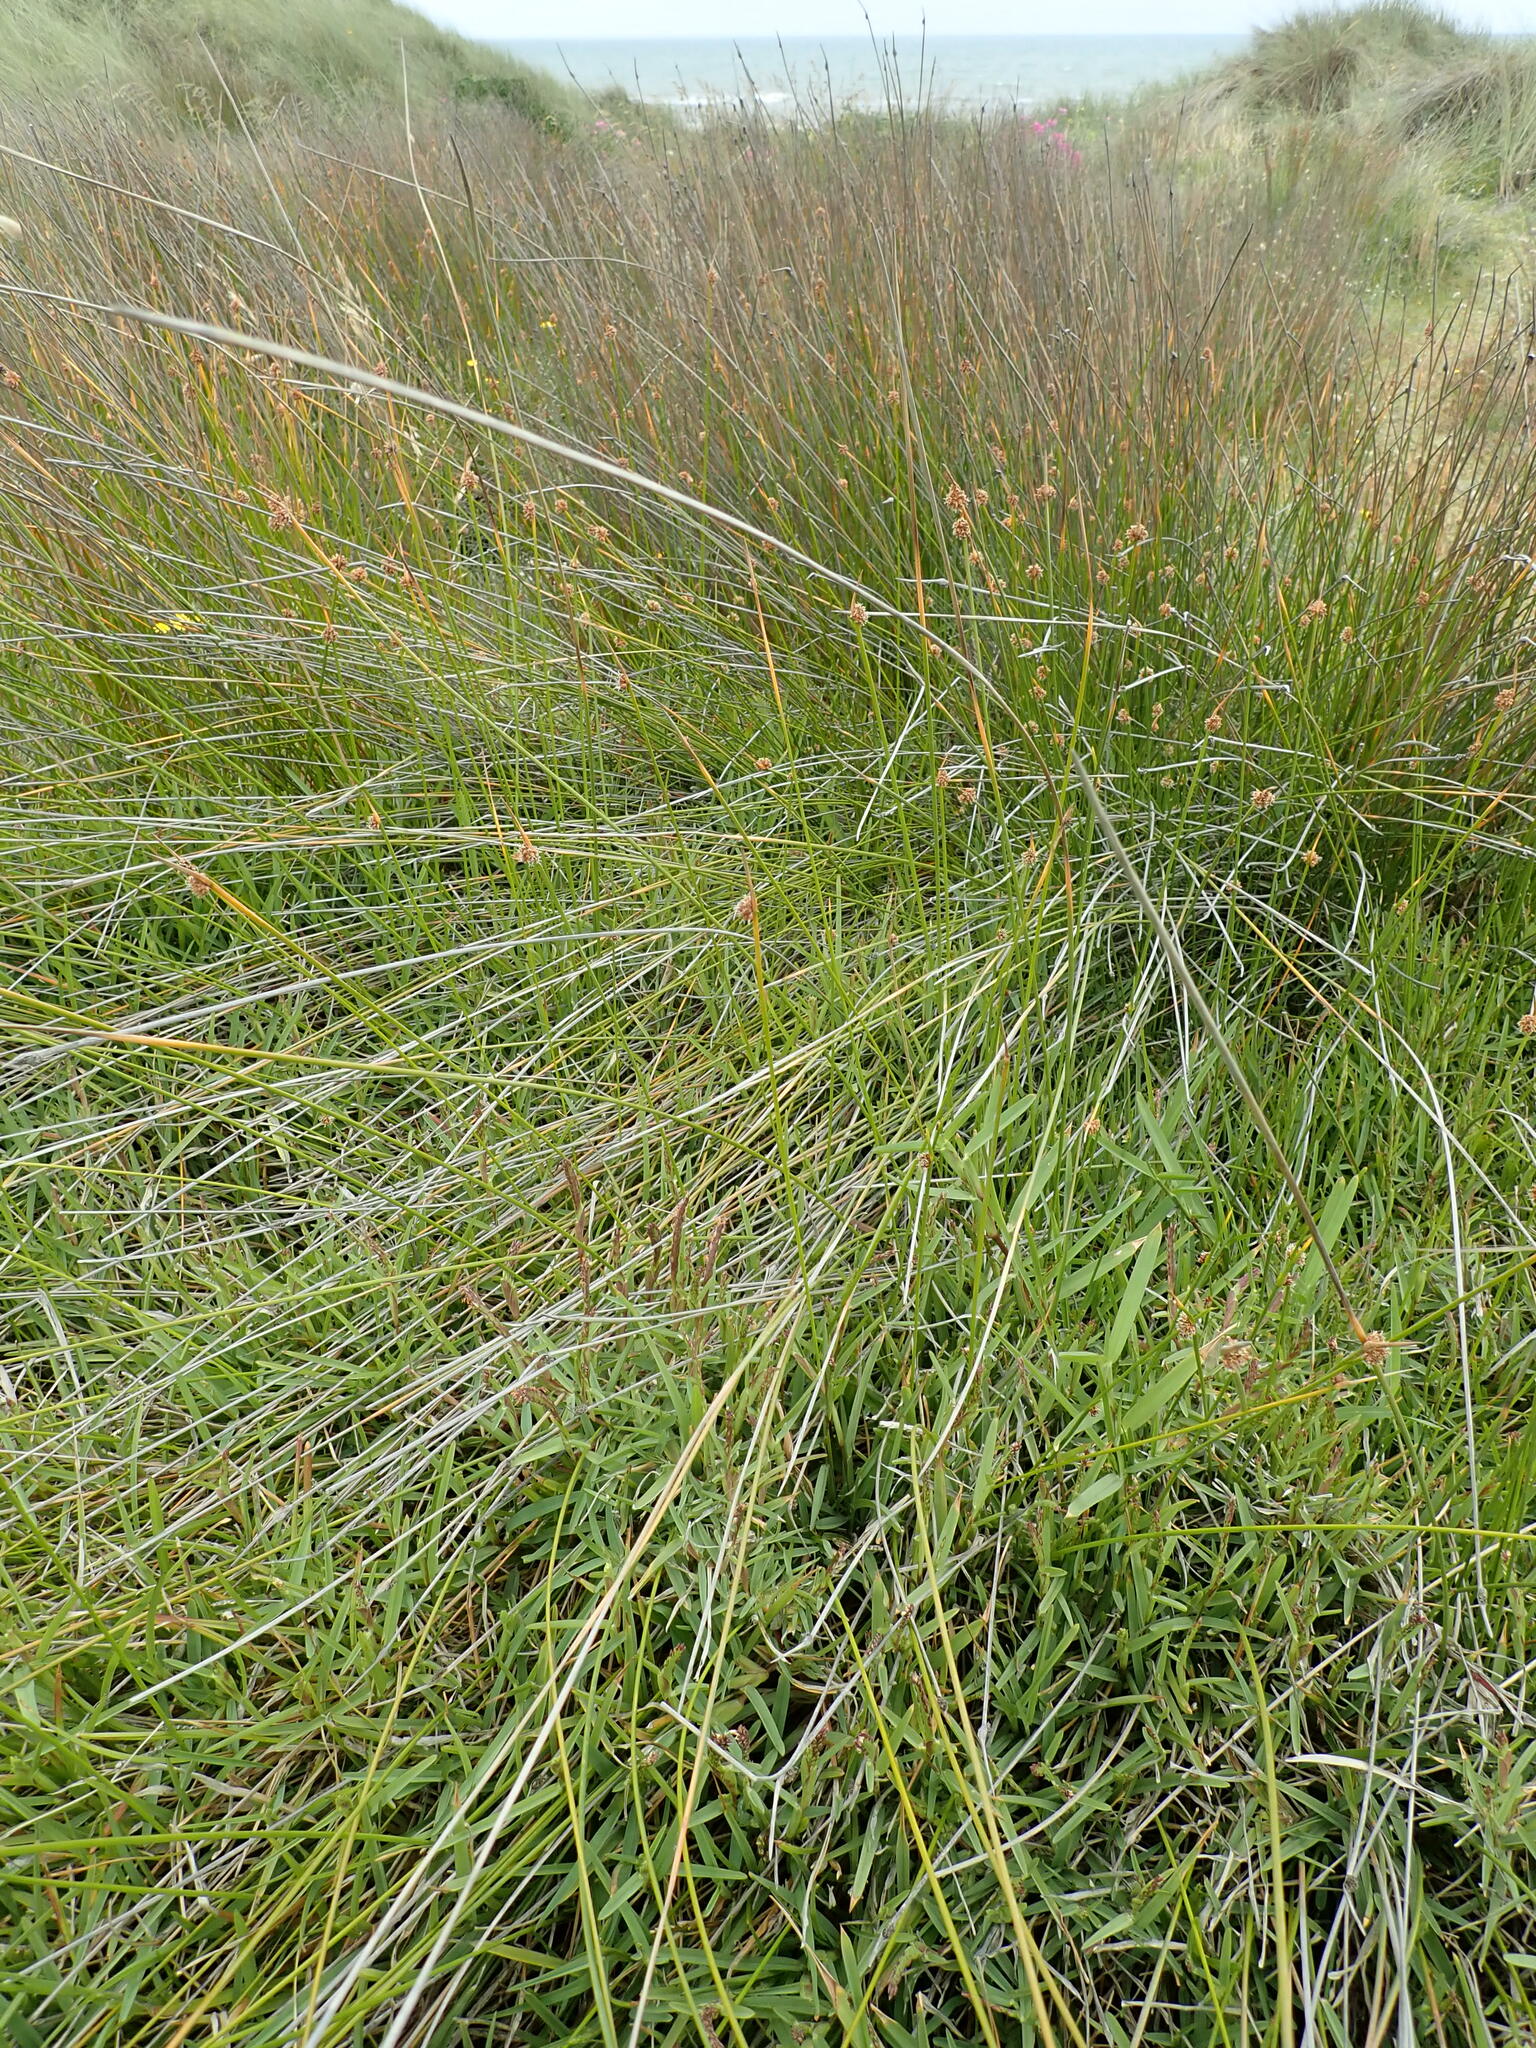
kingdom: Plantae
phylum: Tracheophyta
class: Liliopsida
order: Poales
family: Poaceae
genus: Stenotaphrum
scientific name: Stenotaphrum secundatum
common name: St. augustine grass
